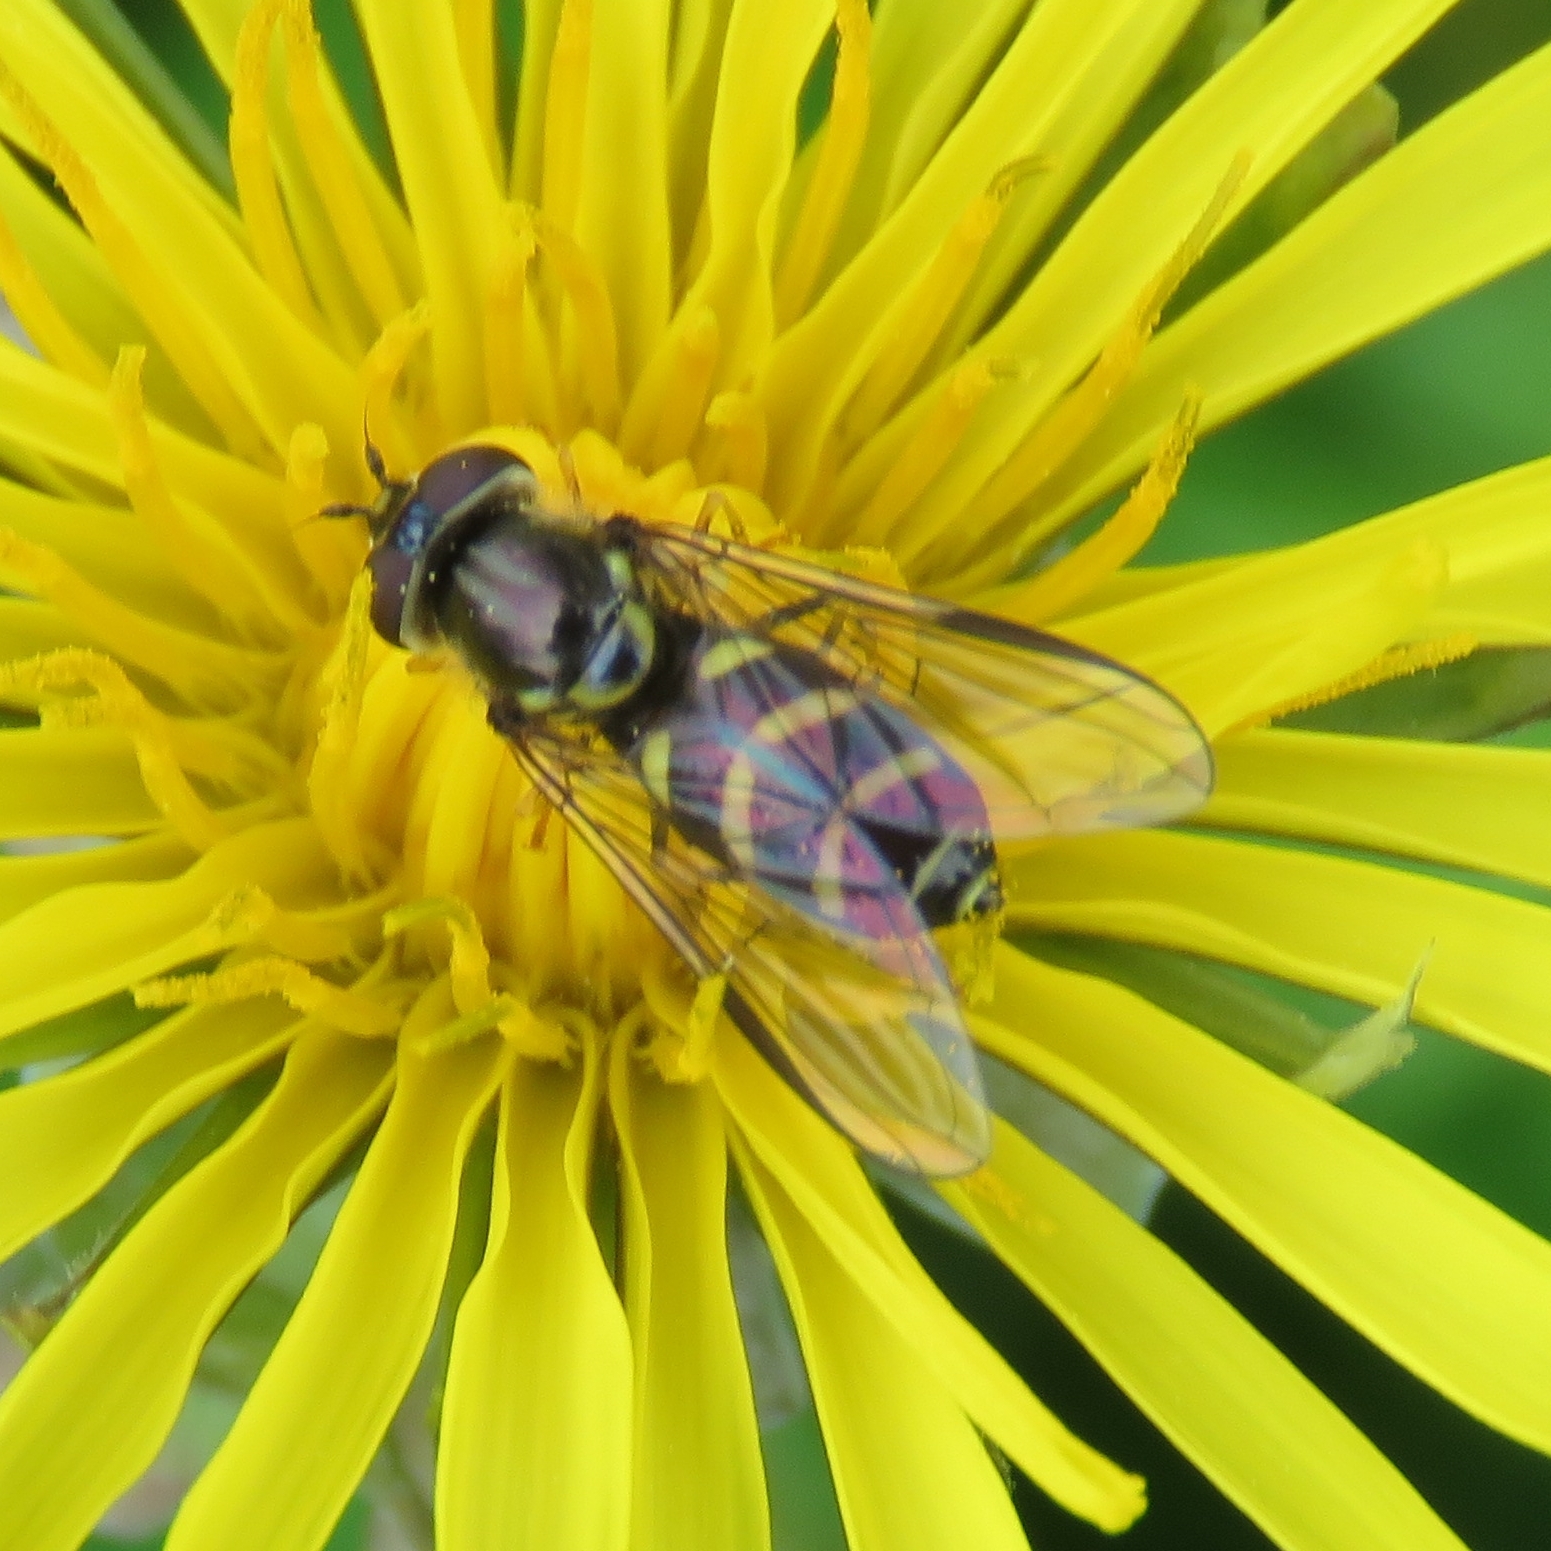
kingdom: Animalia
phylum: Arthropoda
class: Insecta
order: Diptera
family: Syrphidae
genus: Dasysyrphus
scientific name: Dasysyrphus albostriatus
